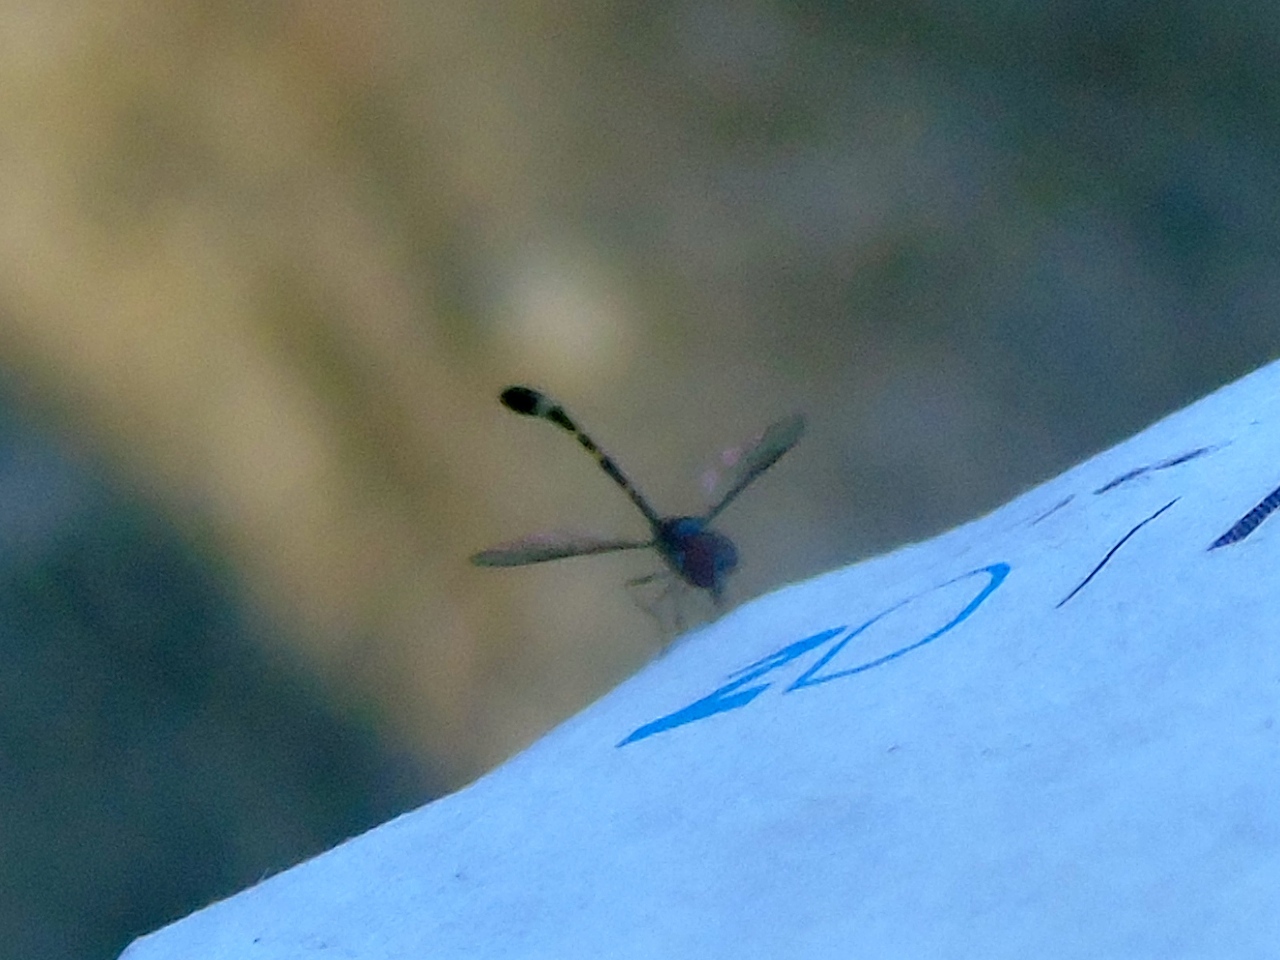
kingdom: Animalia
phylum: Arthropoda
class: Insecta
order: Diptera
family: Syrphidae
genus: Baccha
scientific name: Baccha
